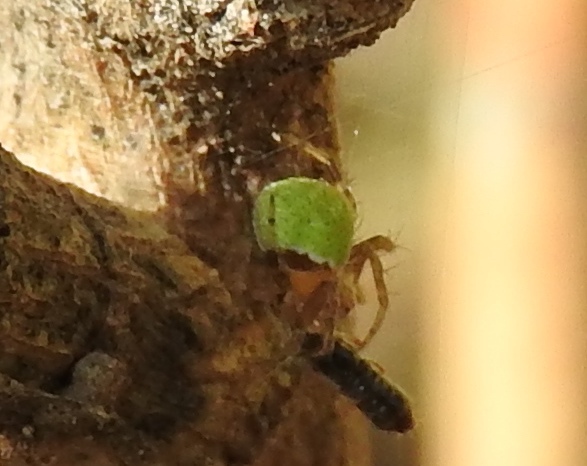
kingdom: Animalia
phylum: Arthropoda
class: Arachnida
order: Araneae
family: Araneidae
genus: Araneus
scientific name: Araneus detrimentosus
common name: Orb weavers
